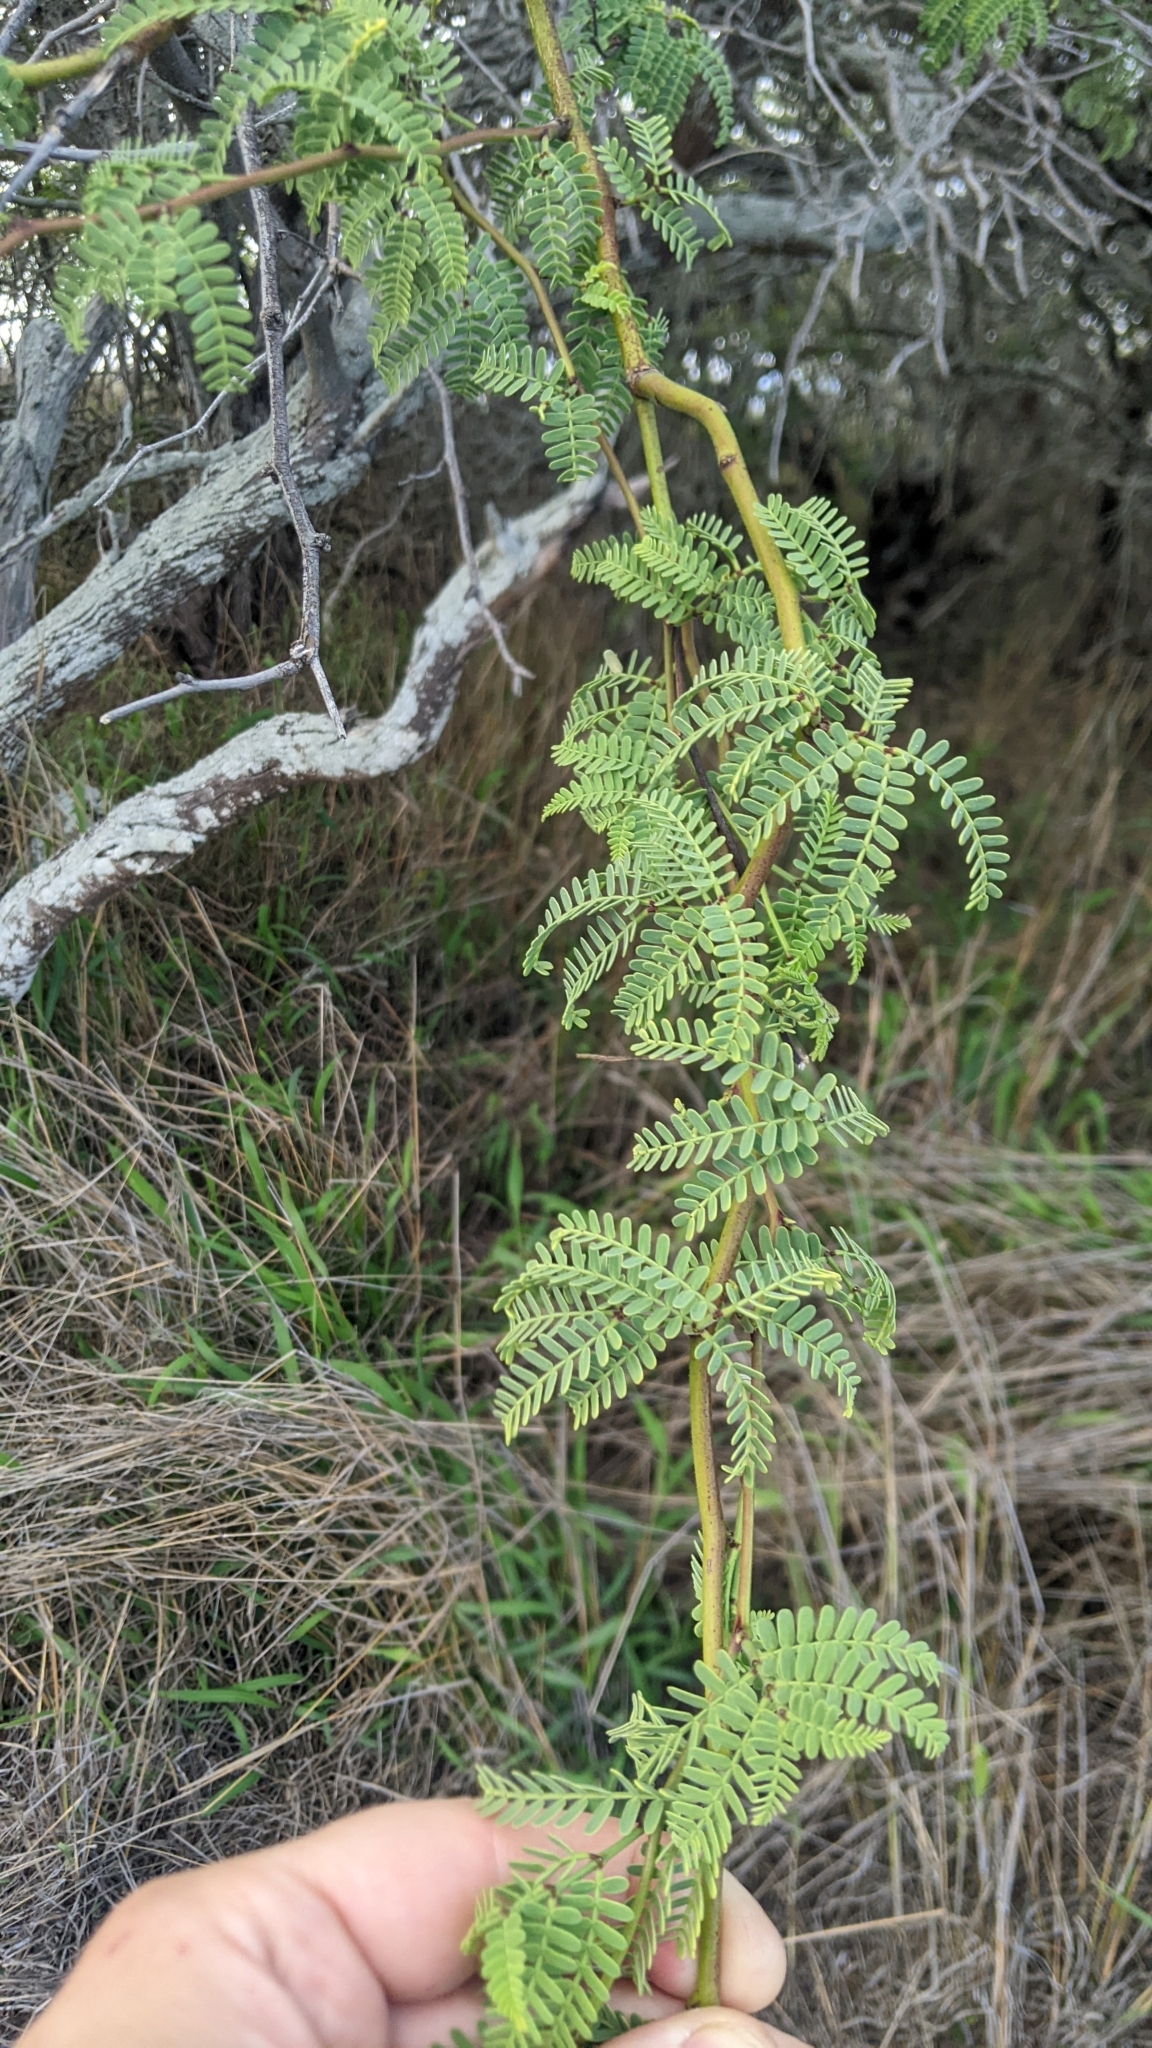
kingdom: Plantae
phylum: Tracheophyta
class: Magnoliopsida
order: Fabales
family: Fabaceae
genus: Prosopis
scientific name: Prosopis pallida
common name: Mesquite
